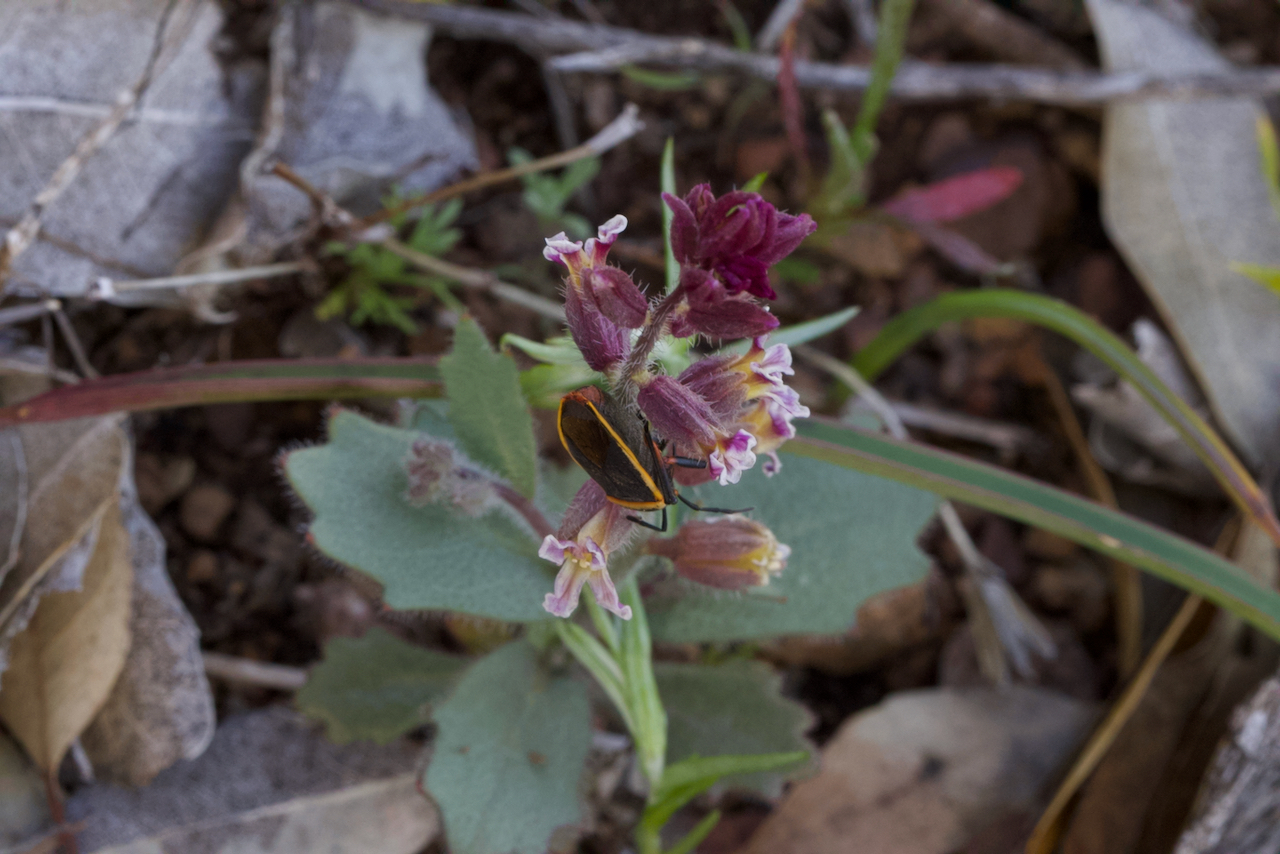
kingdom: Animalia
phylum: Arthropoda
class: Insecta
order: Hemiptera
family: Largidae
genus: Largus
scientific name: Largus californicus
